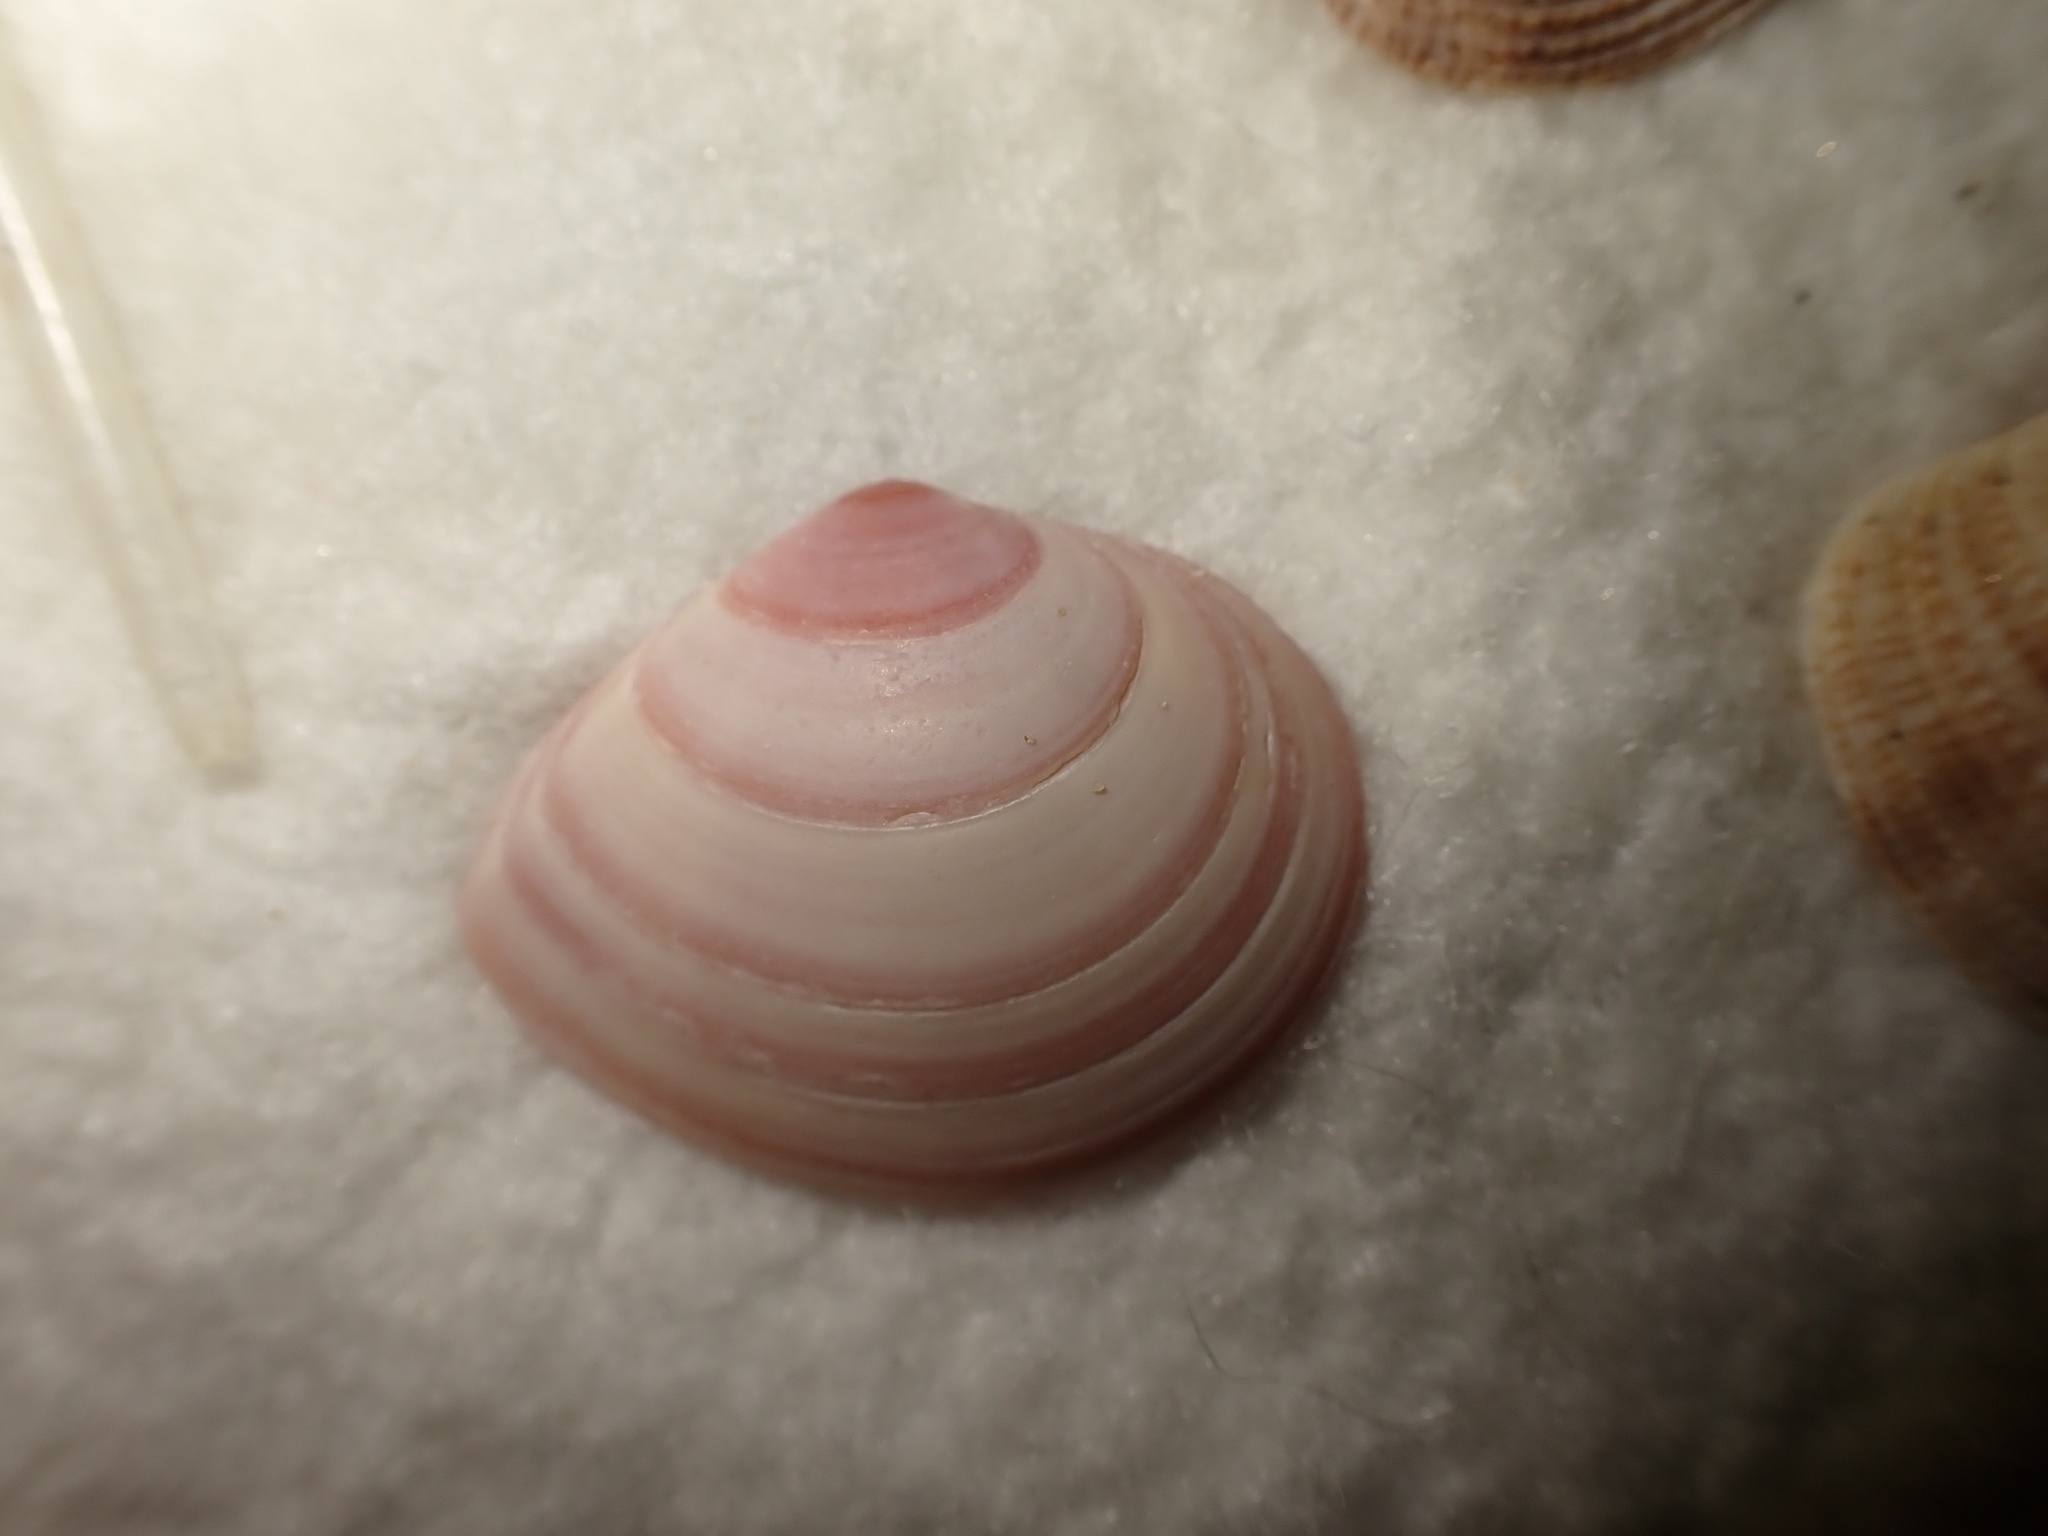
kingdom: Animalia
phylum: Mollusca
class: Bivalvia
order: Cardiida
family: Tellinidae
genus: Macoma
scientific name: Macoma balthica
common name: Baltic tellin
